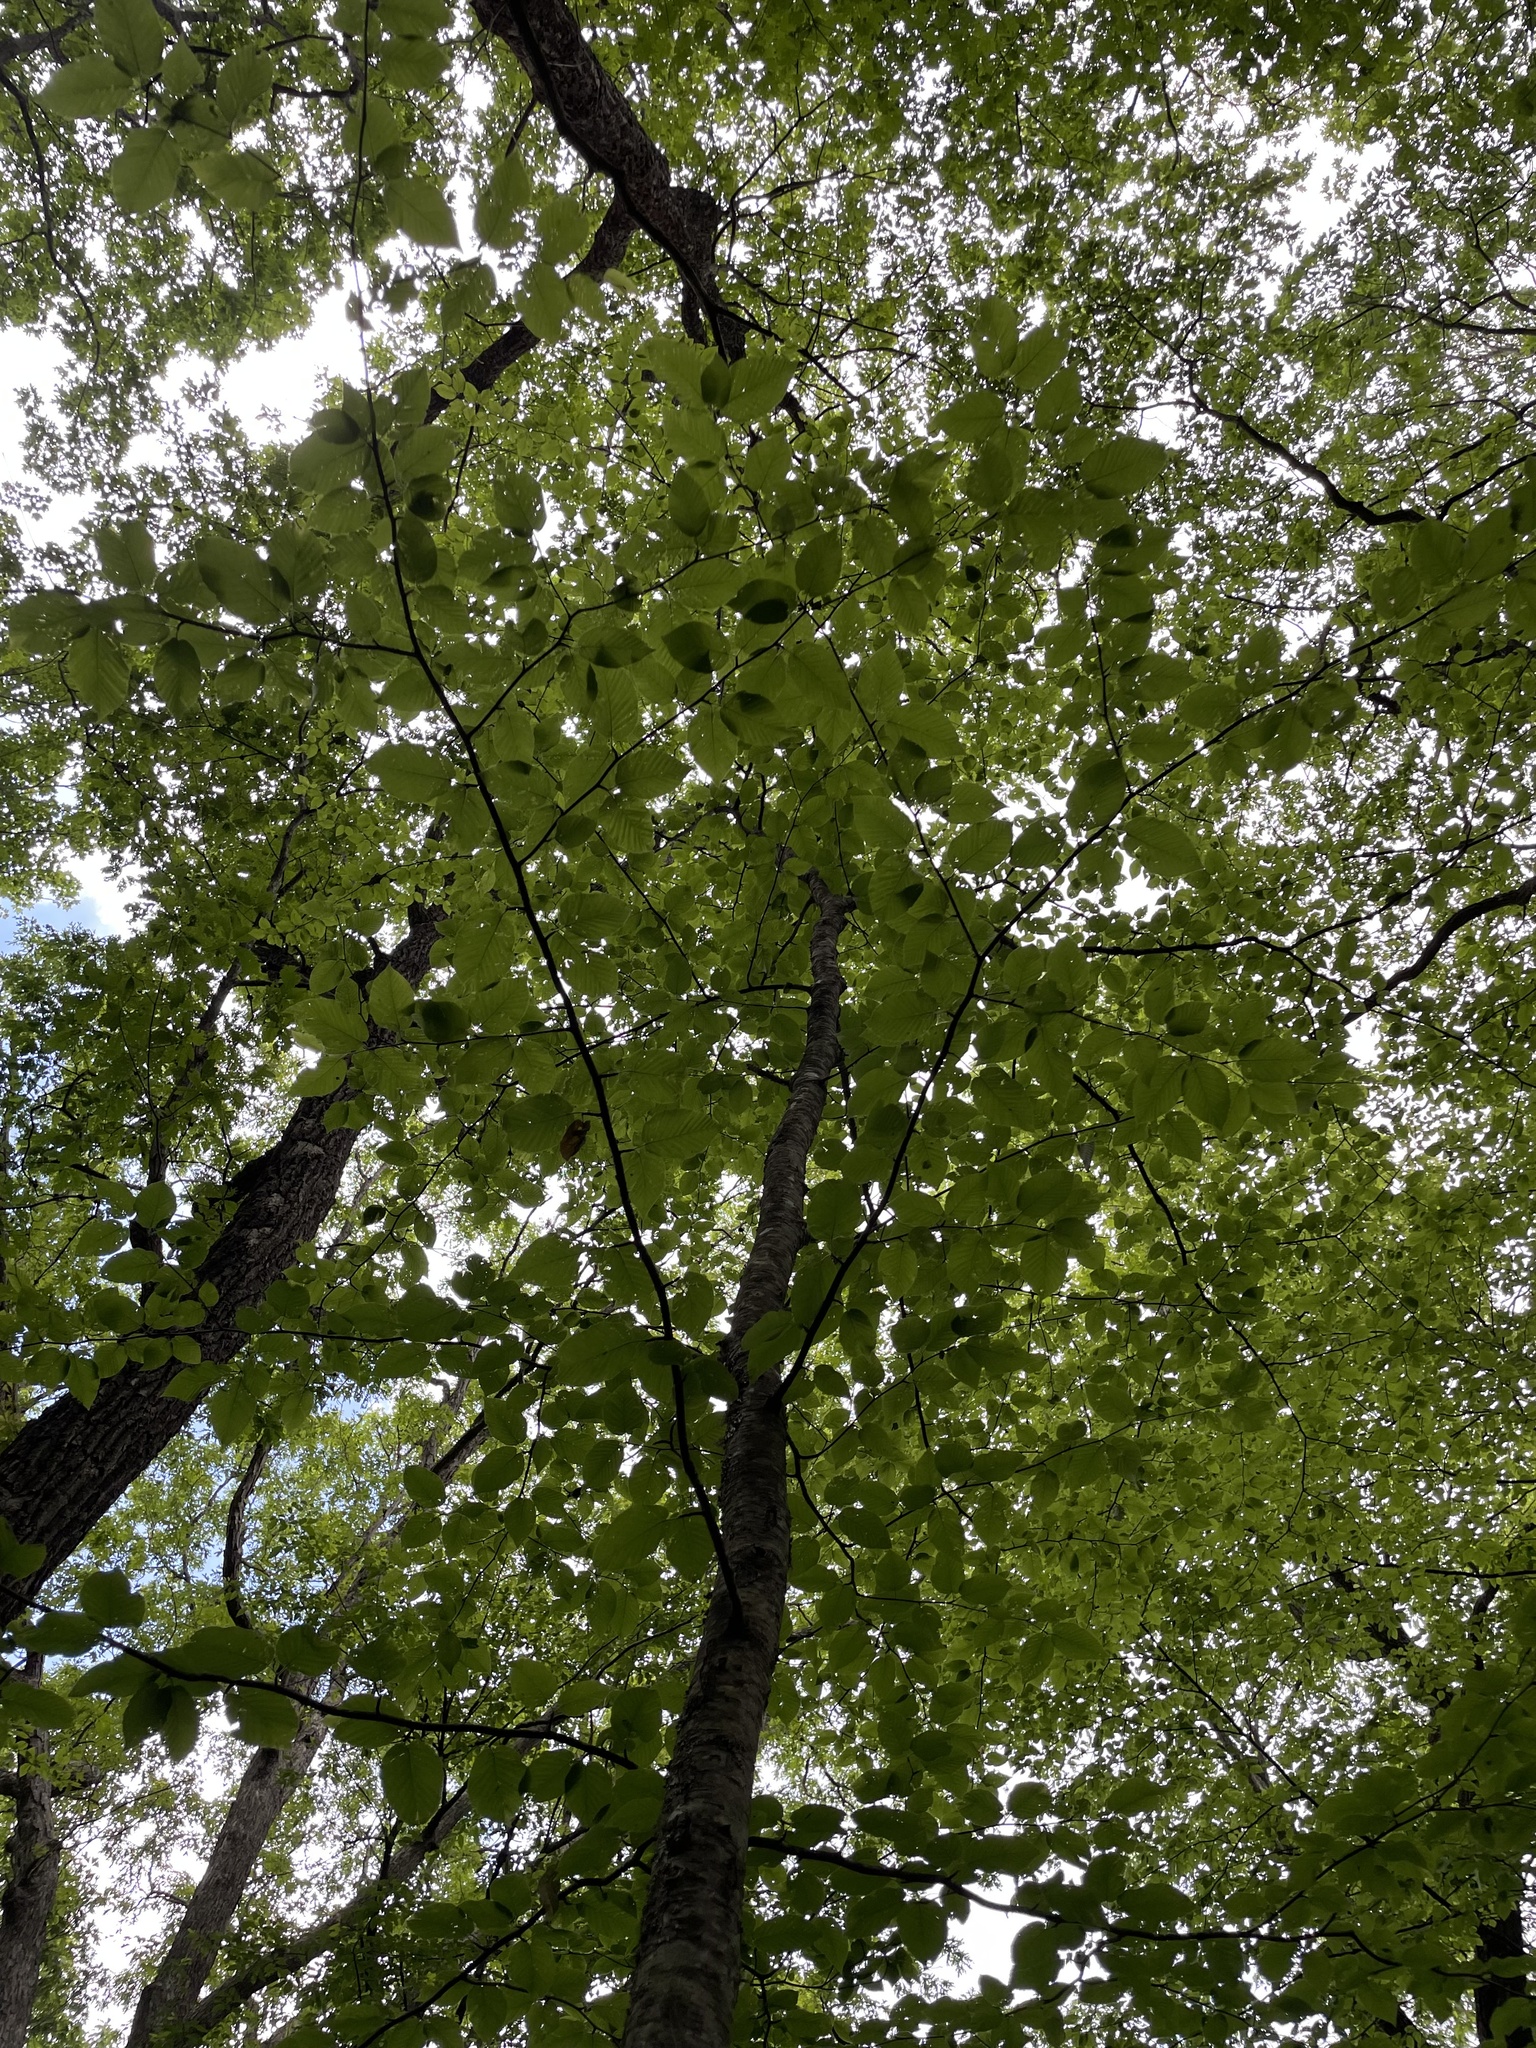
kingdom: Plantae
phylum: Tracheophyta
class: Magnoliopsida
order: Fagales
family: Betulaceae
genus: Betula
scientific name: Betula alleghaniensis
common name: Yellow birch
